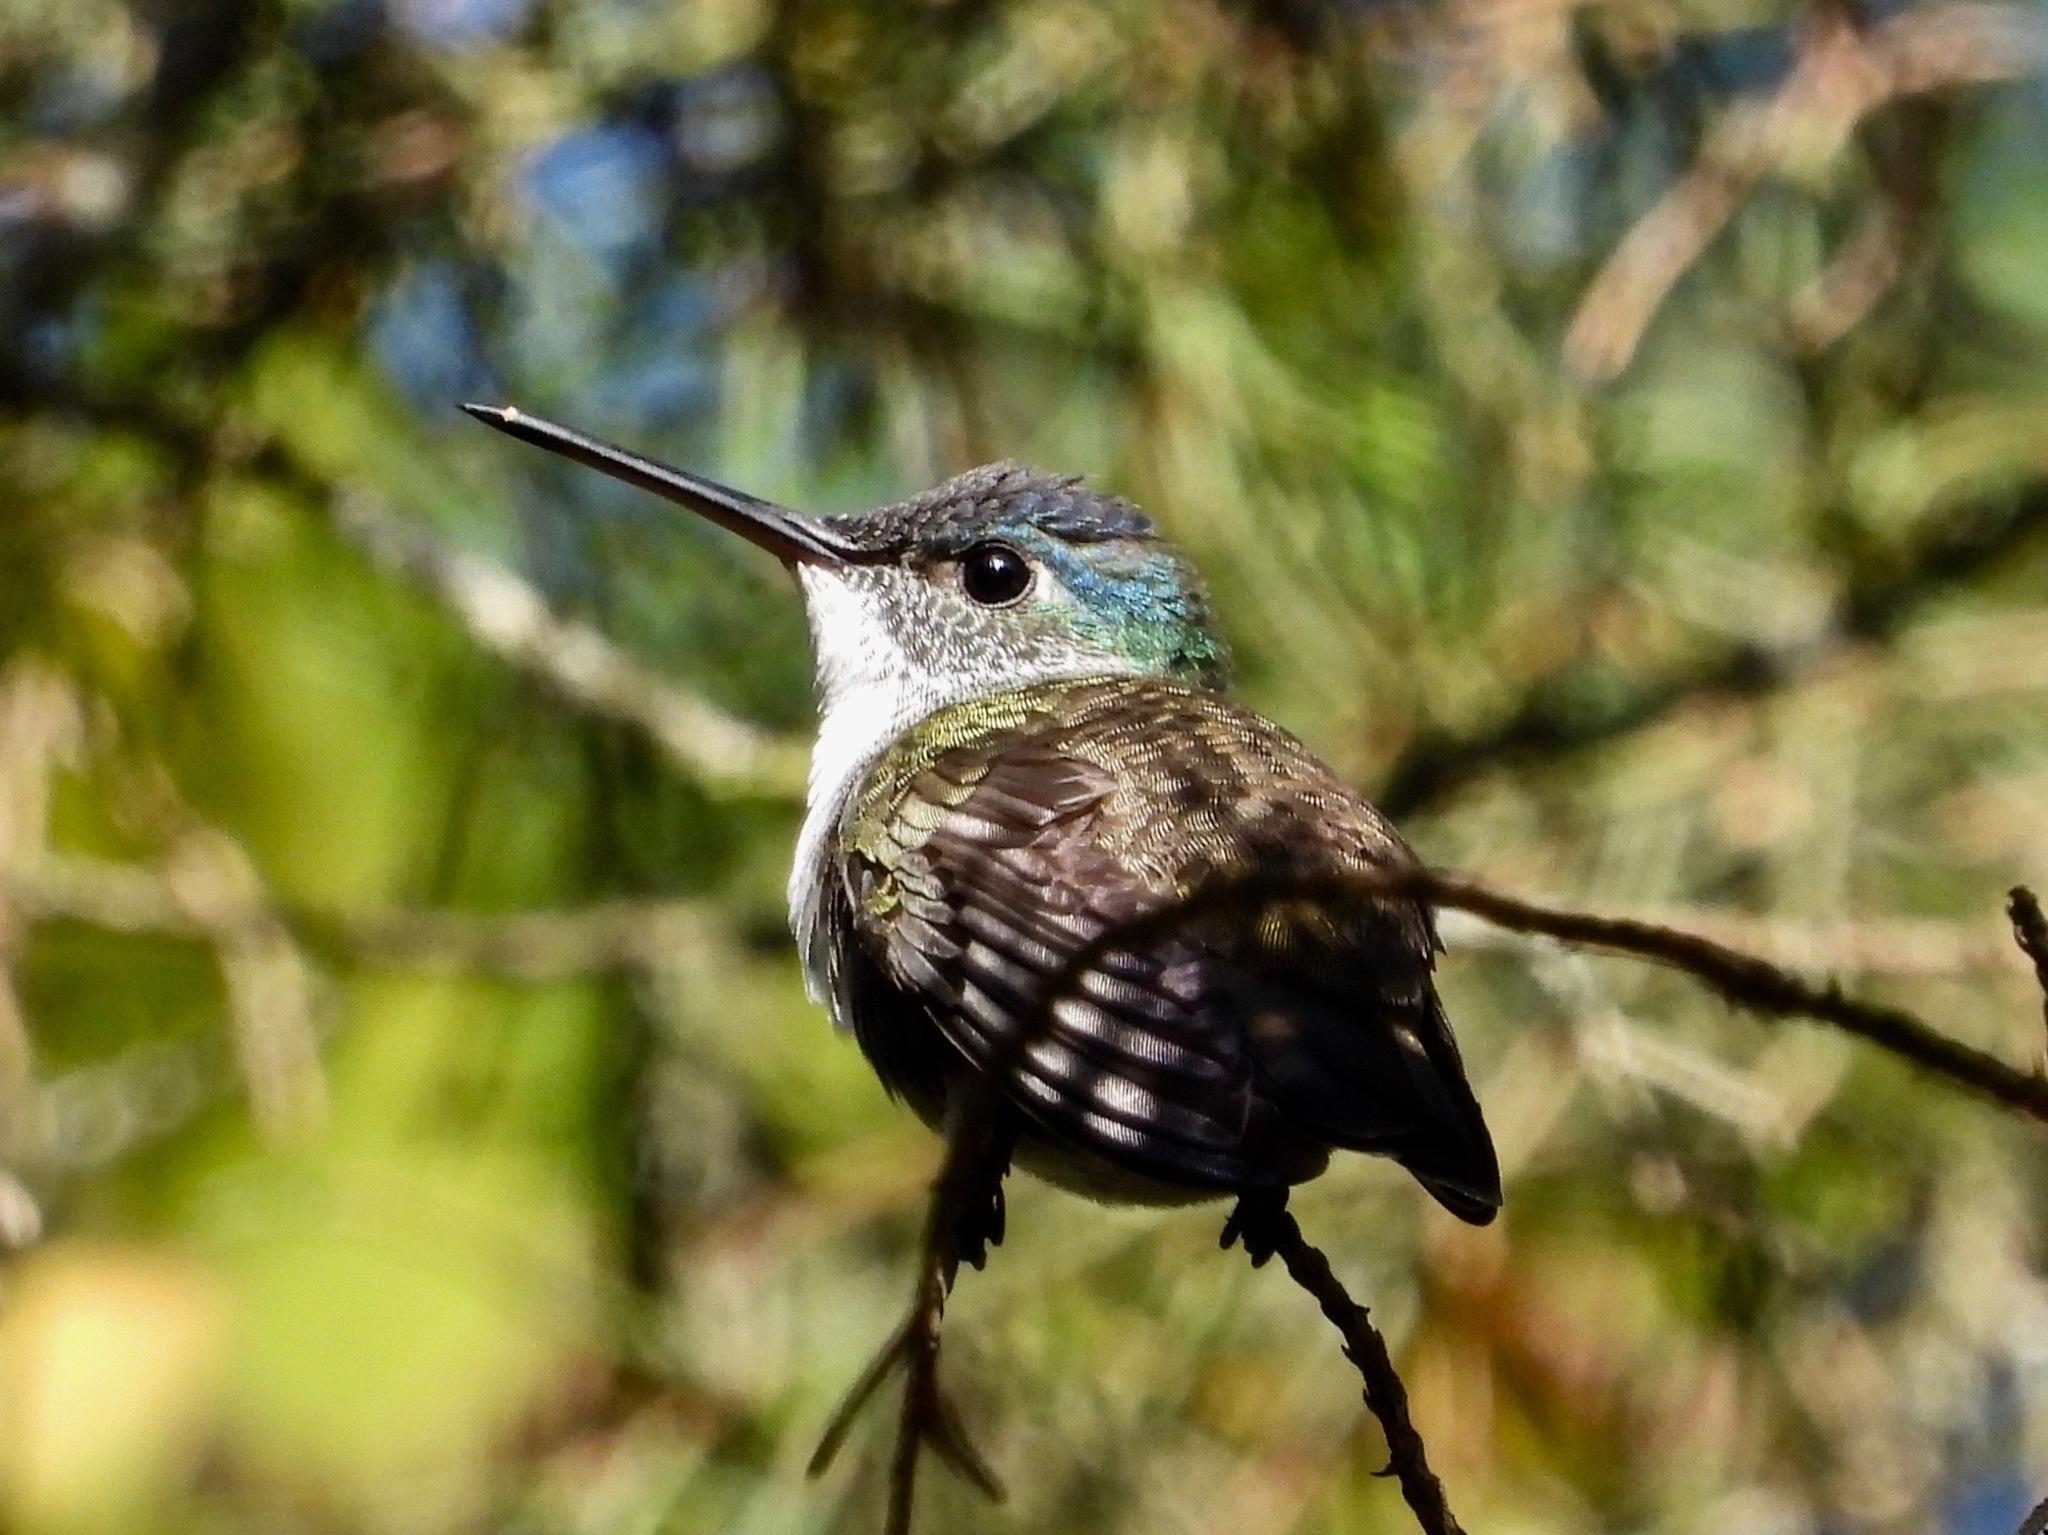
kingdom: Animalia
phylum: Chordata
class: Aves
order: Apodiformes
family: Trochilidae
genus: Saucerottia
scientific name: Saucerottia cyanocephala
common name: Azure-crowned hummingbird
